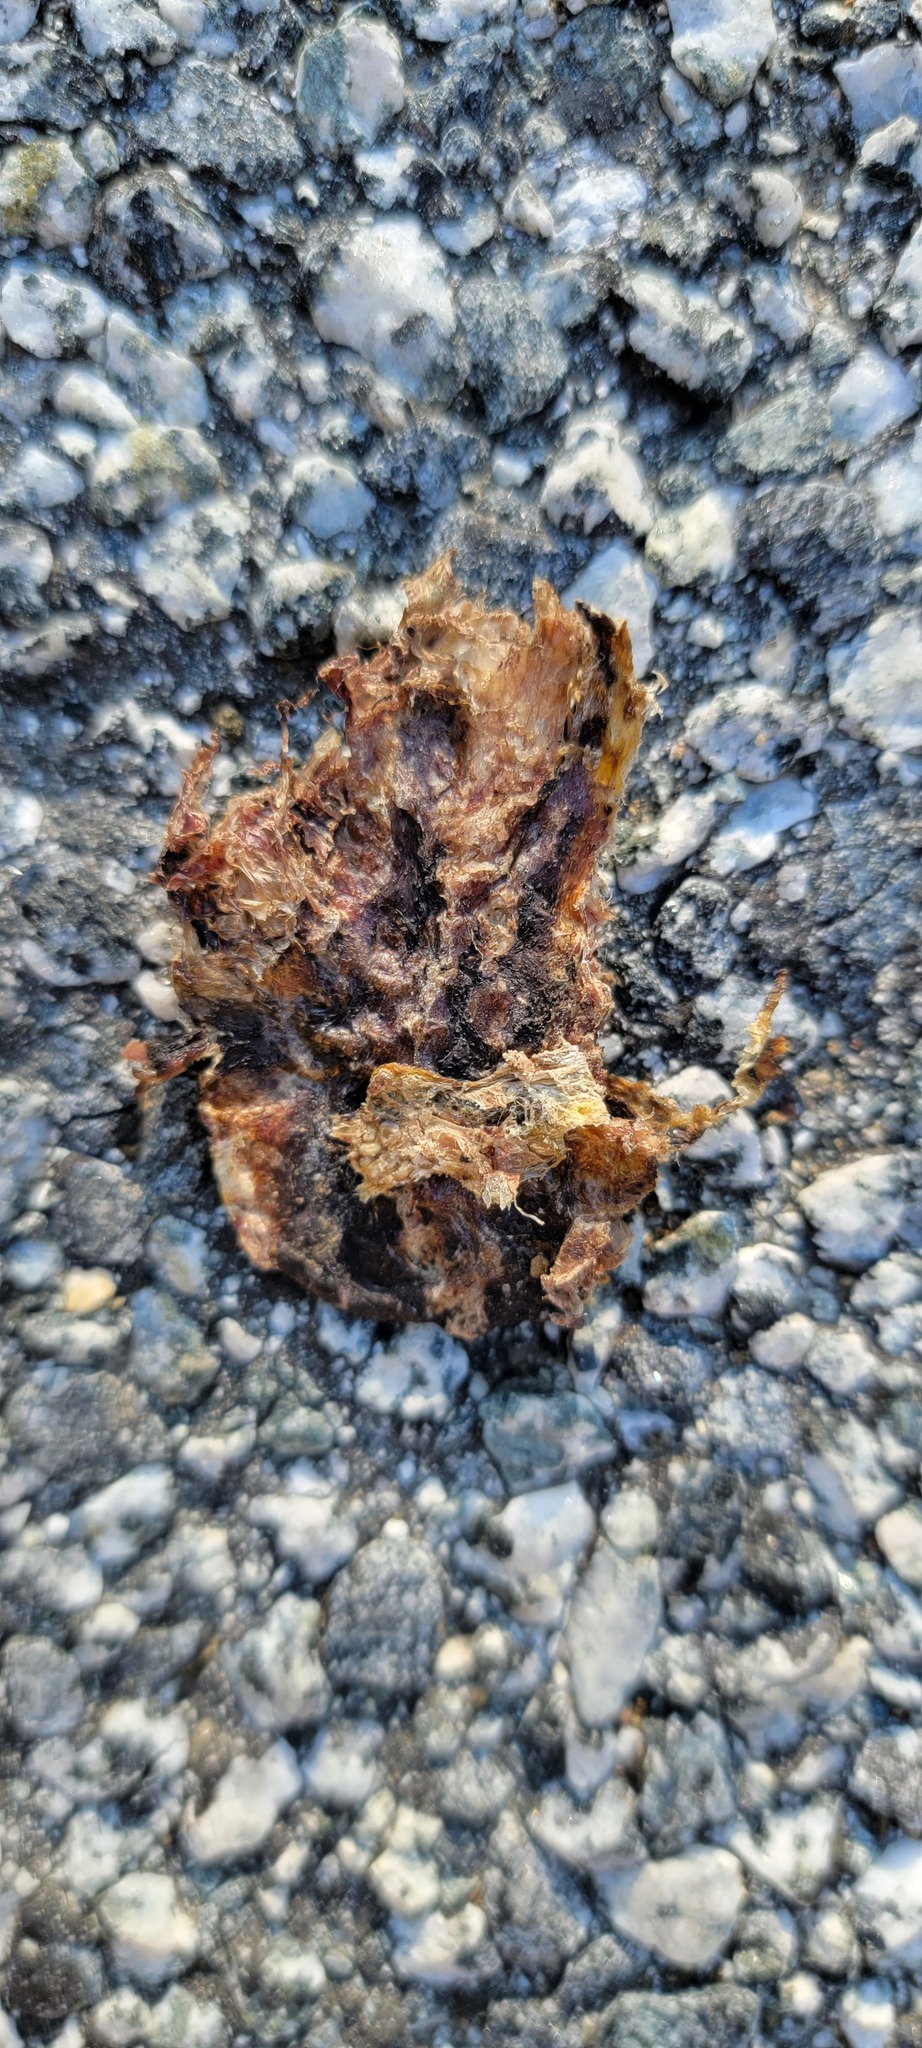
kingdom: Animalia
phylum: Chordata
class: Amphibia
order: Caudata
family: Salamandridae
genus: Taricha
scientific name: Taricha
